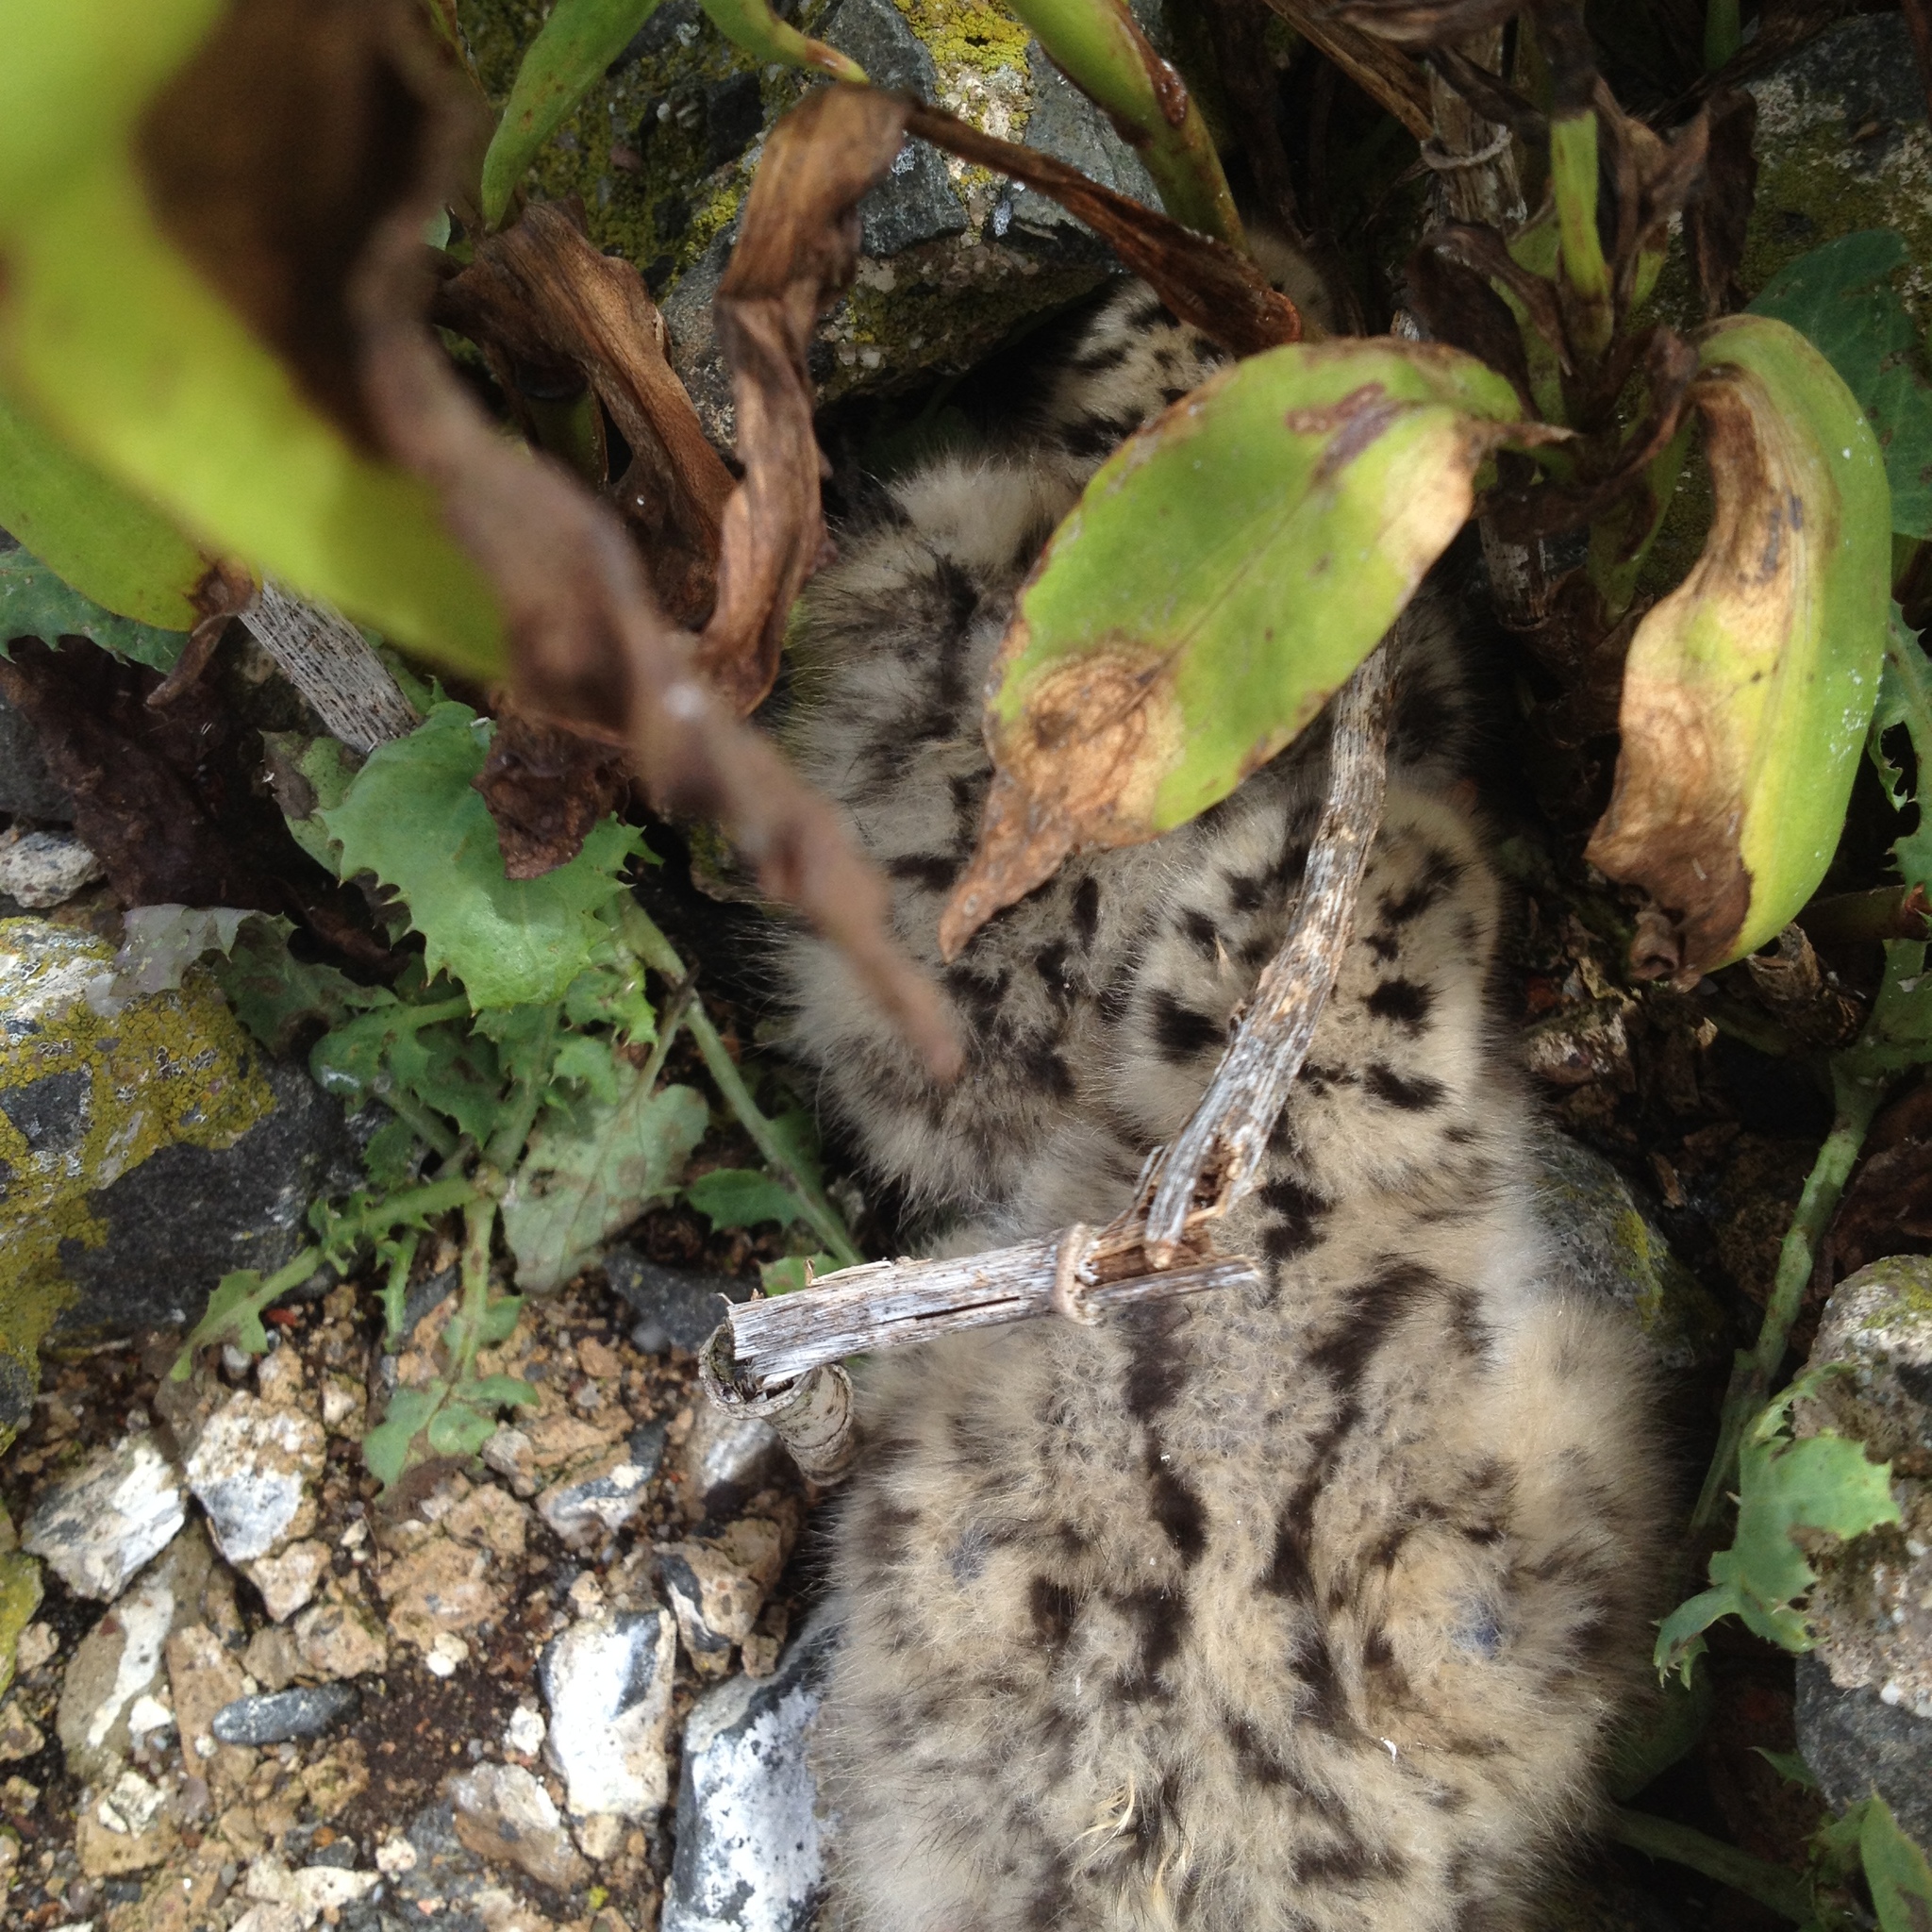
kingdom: Animalia
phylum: Chordata
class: Aves
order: Charadriiformes
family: Laridae
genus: Sterna
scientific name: Sterna hirundo
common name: Common tern
